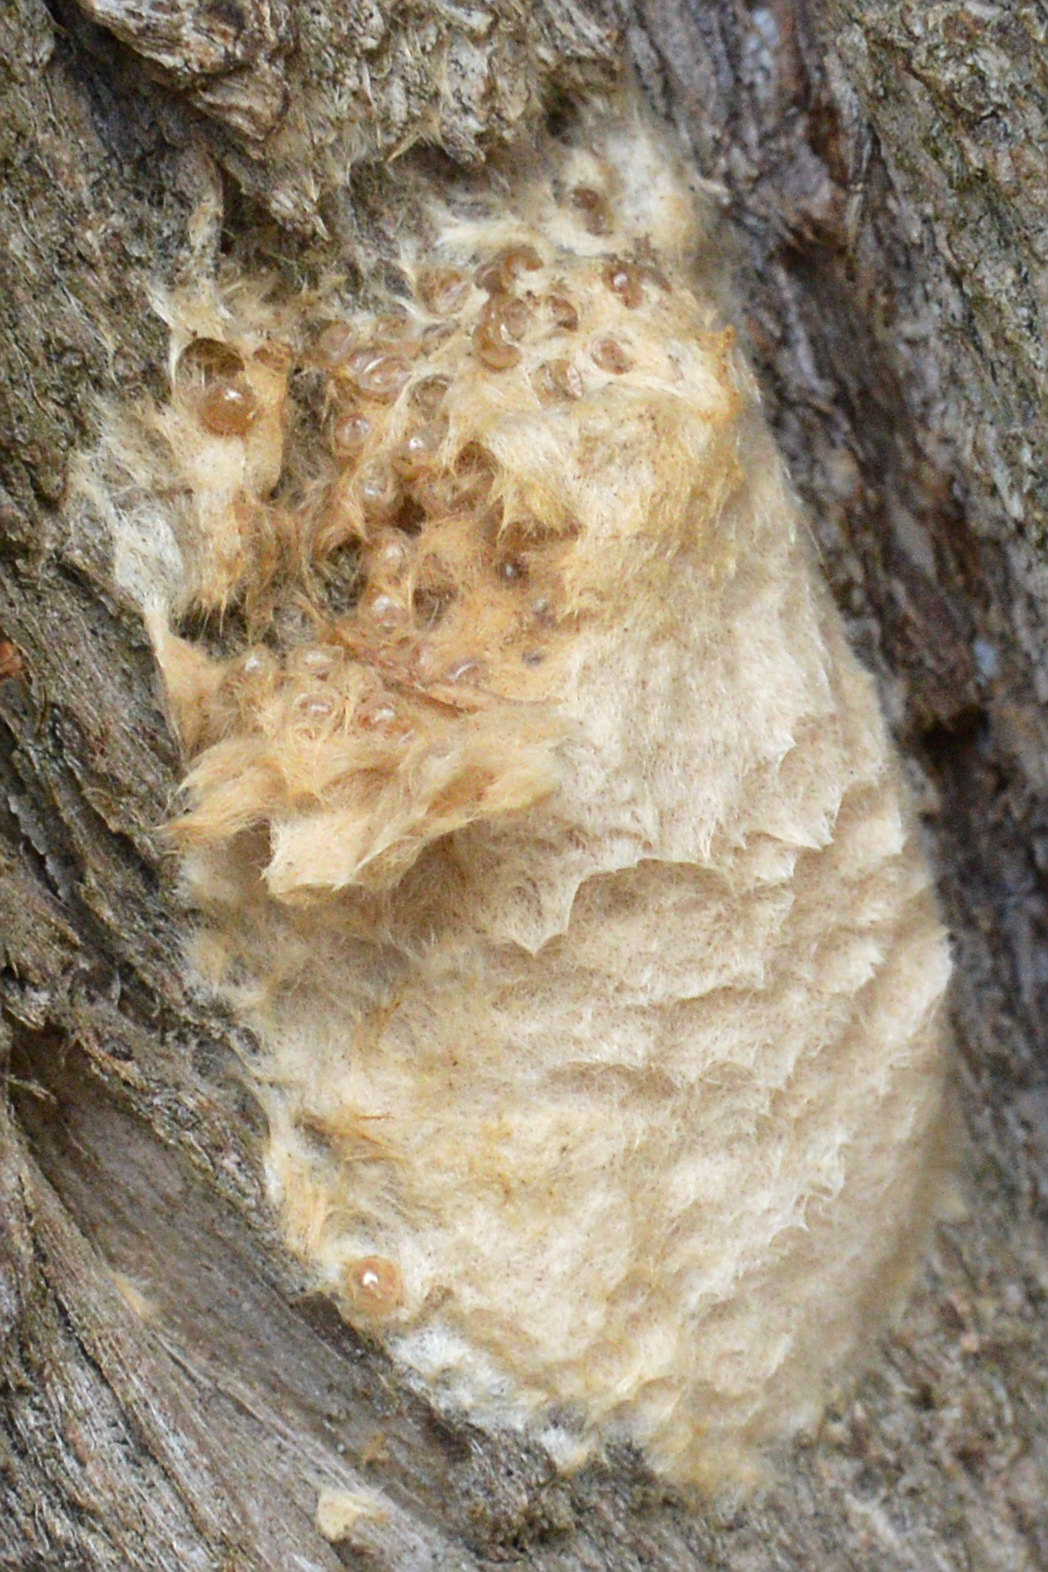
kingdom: Animalia
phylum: Arthropoda
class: Insecta
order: Lepidoptera
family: Erebidae
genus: Lymantria
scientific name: Lymantria dispar
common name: Gypsy moth
